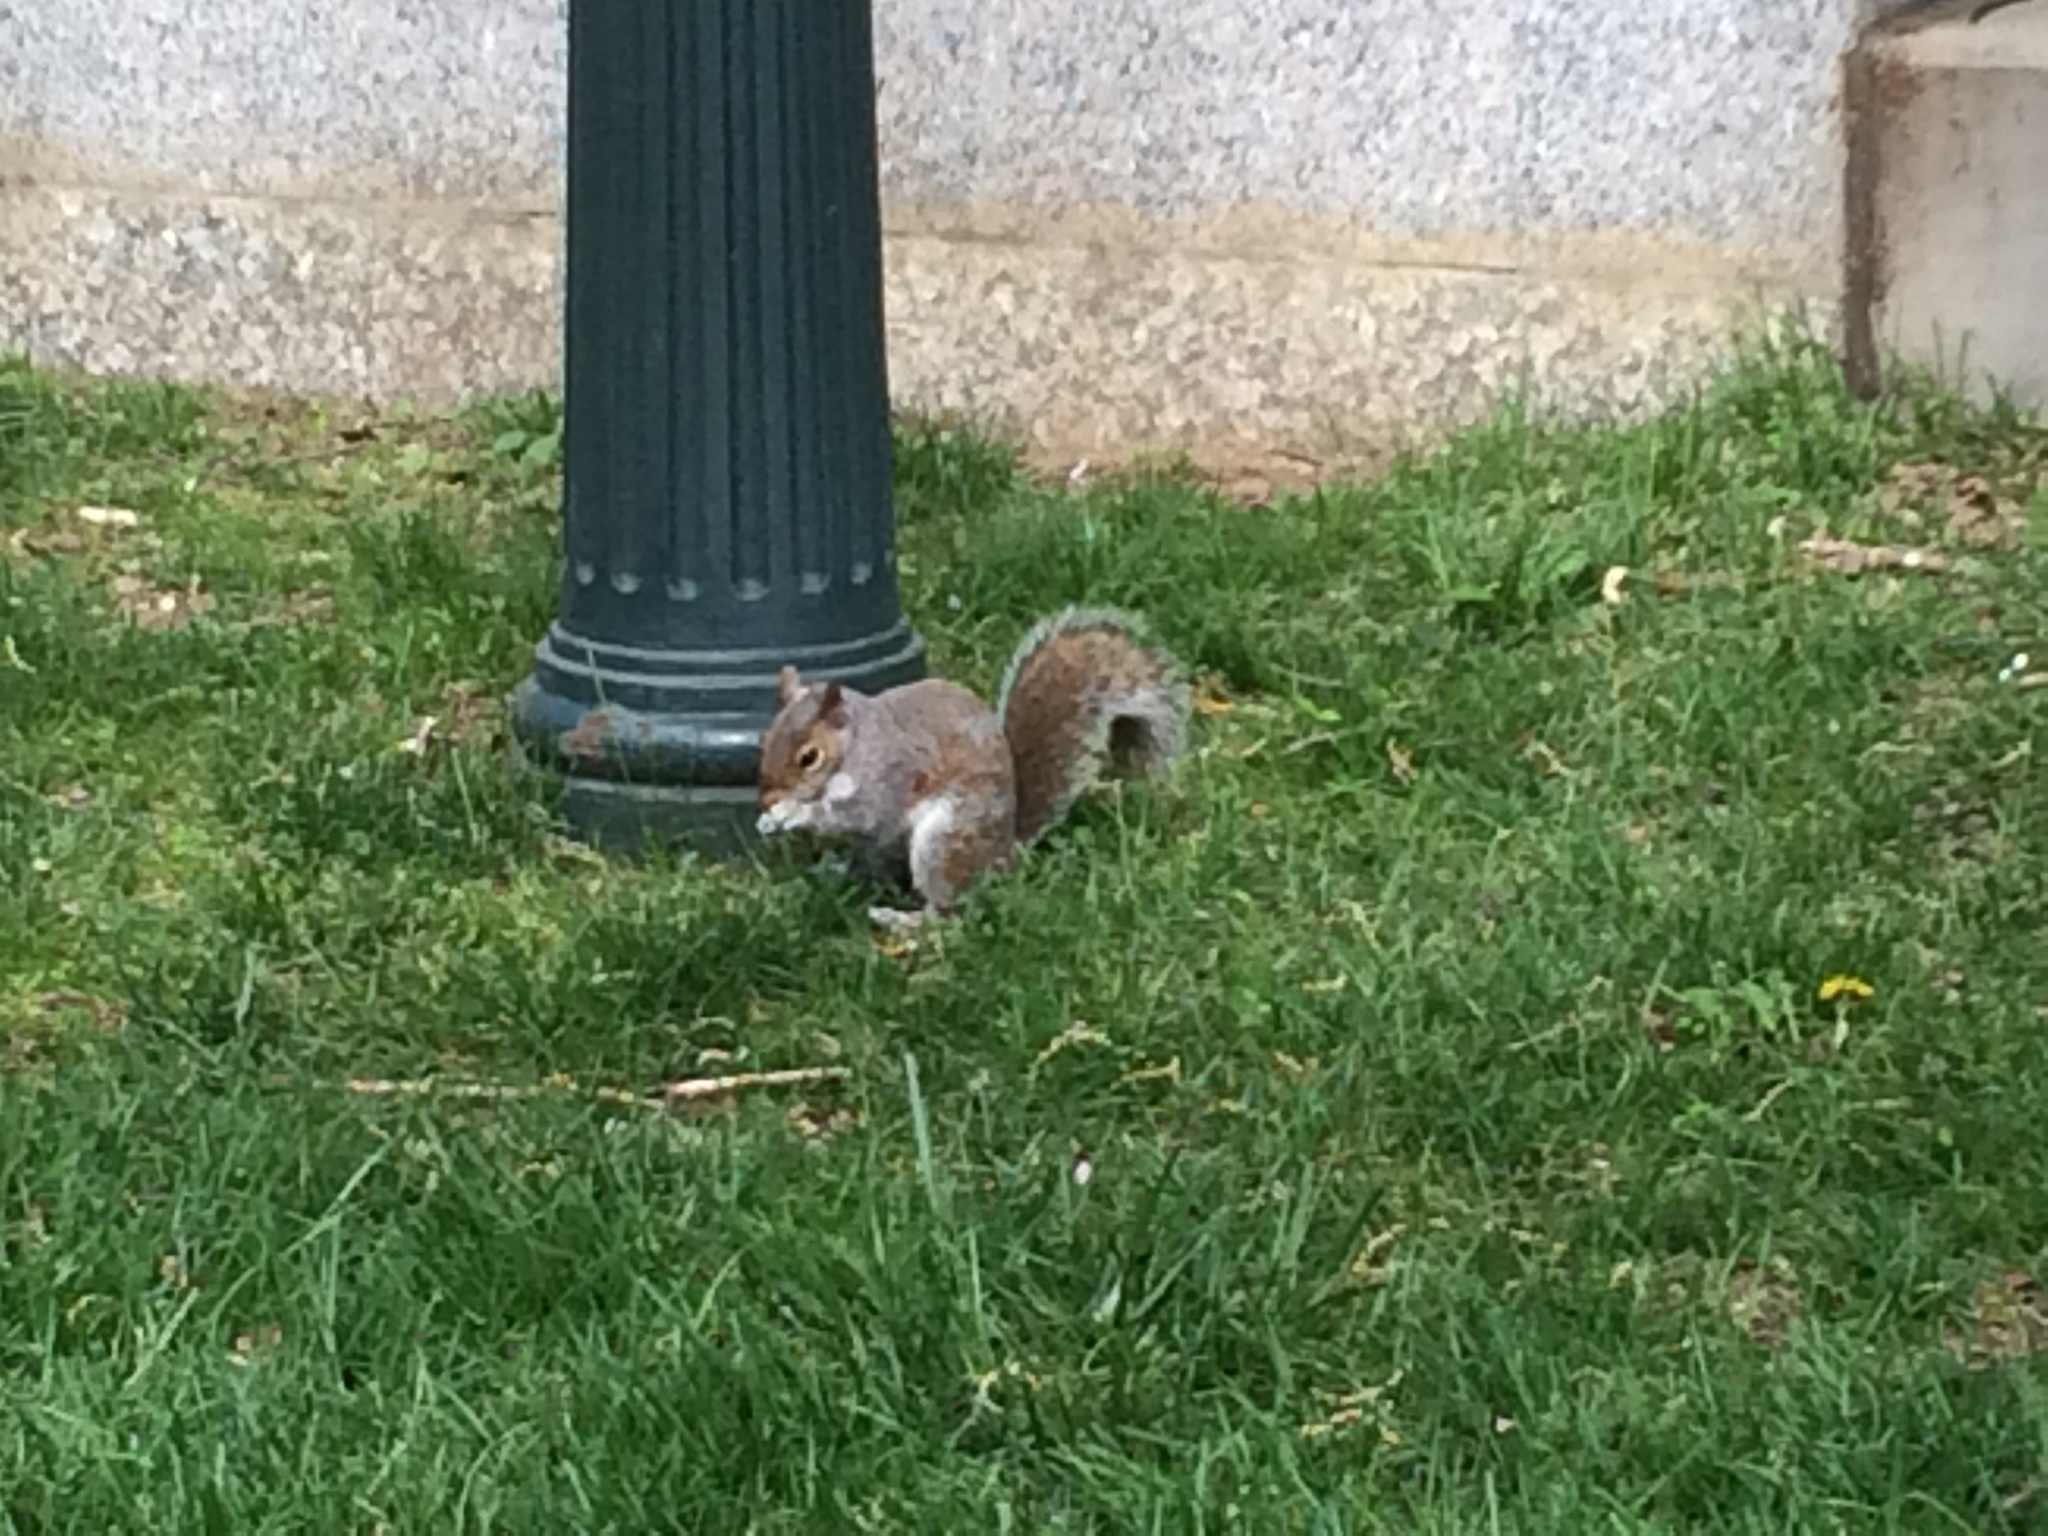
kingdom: Animalia
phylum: Chordata
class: Mammalia
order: Rodentia
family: Sciuridae
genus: Sciurus
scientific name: Sciurus carolinensis
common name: Eastern gray squirrel
